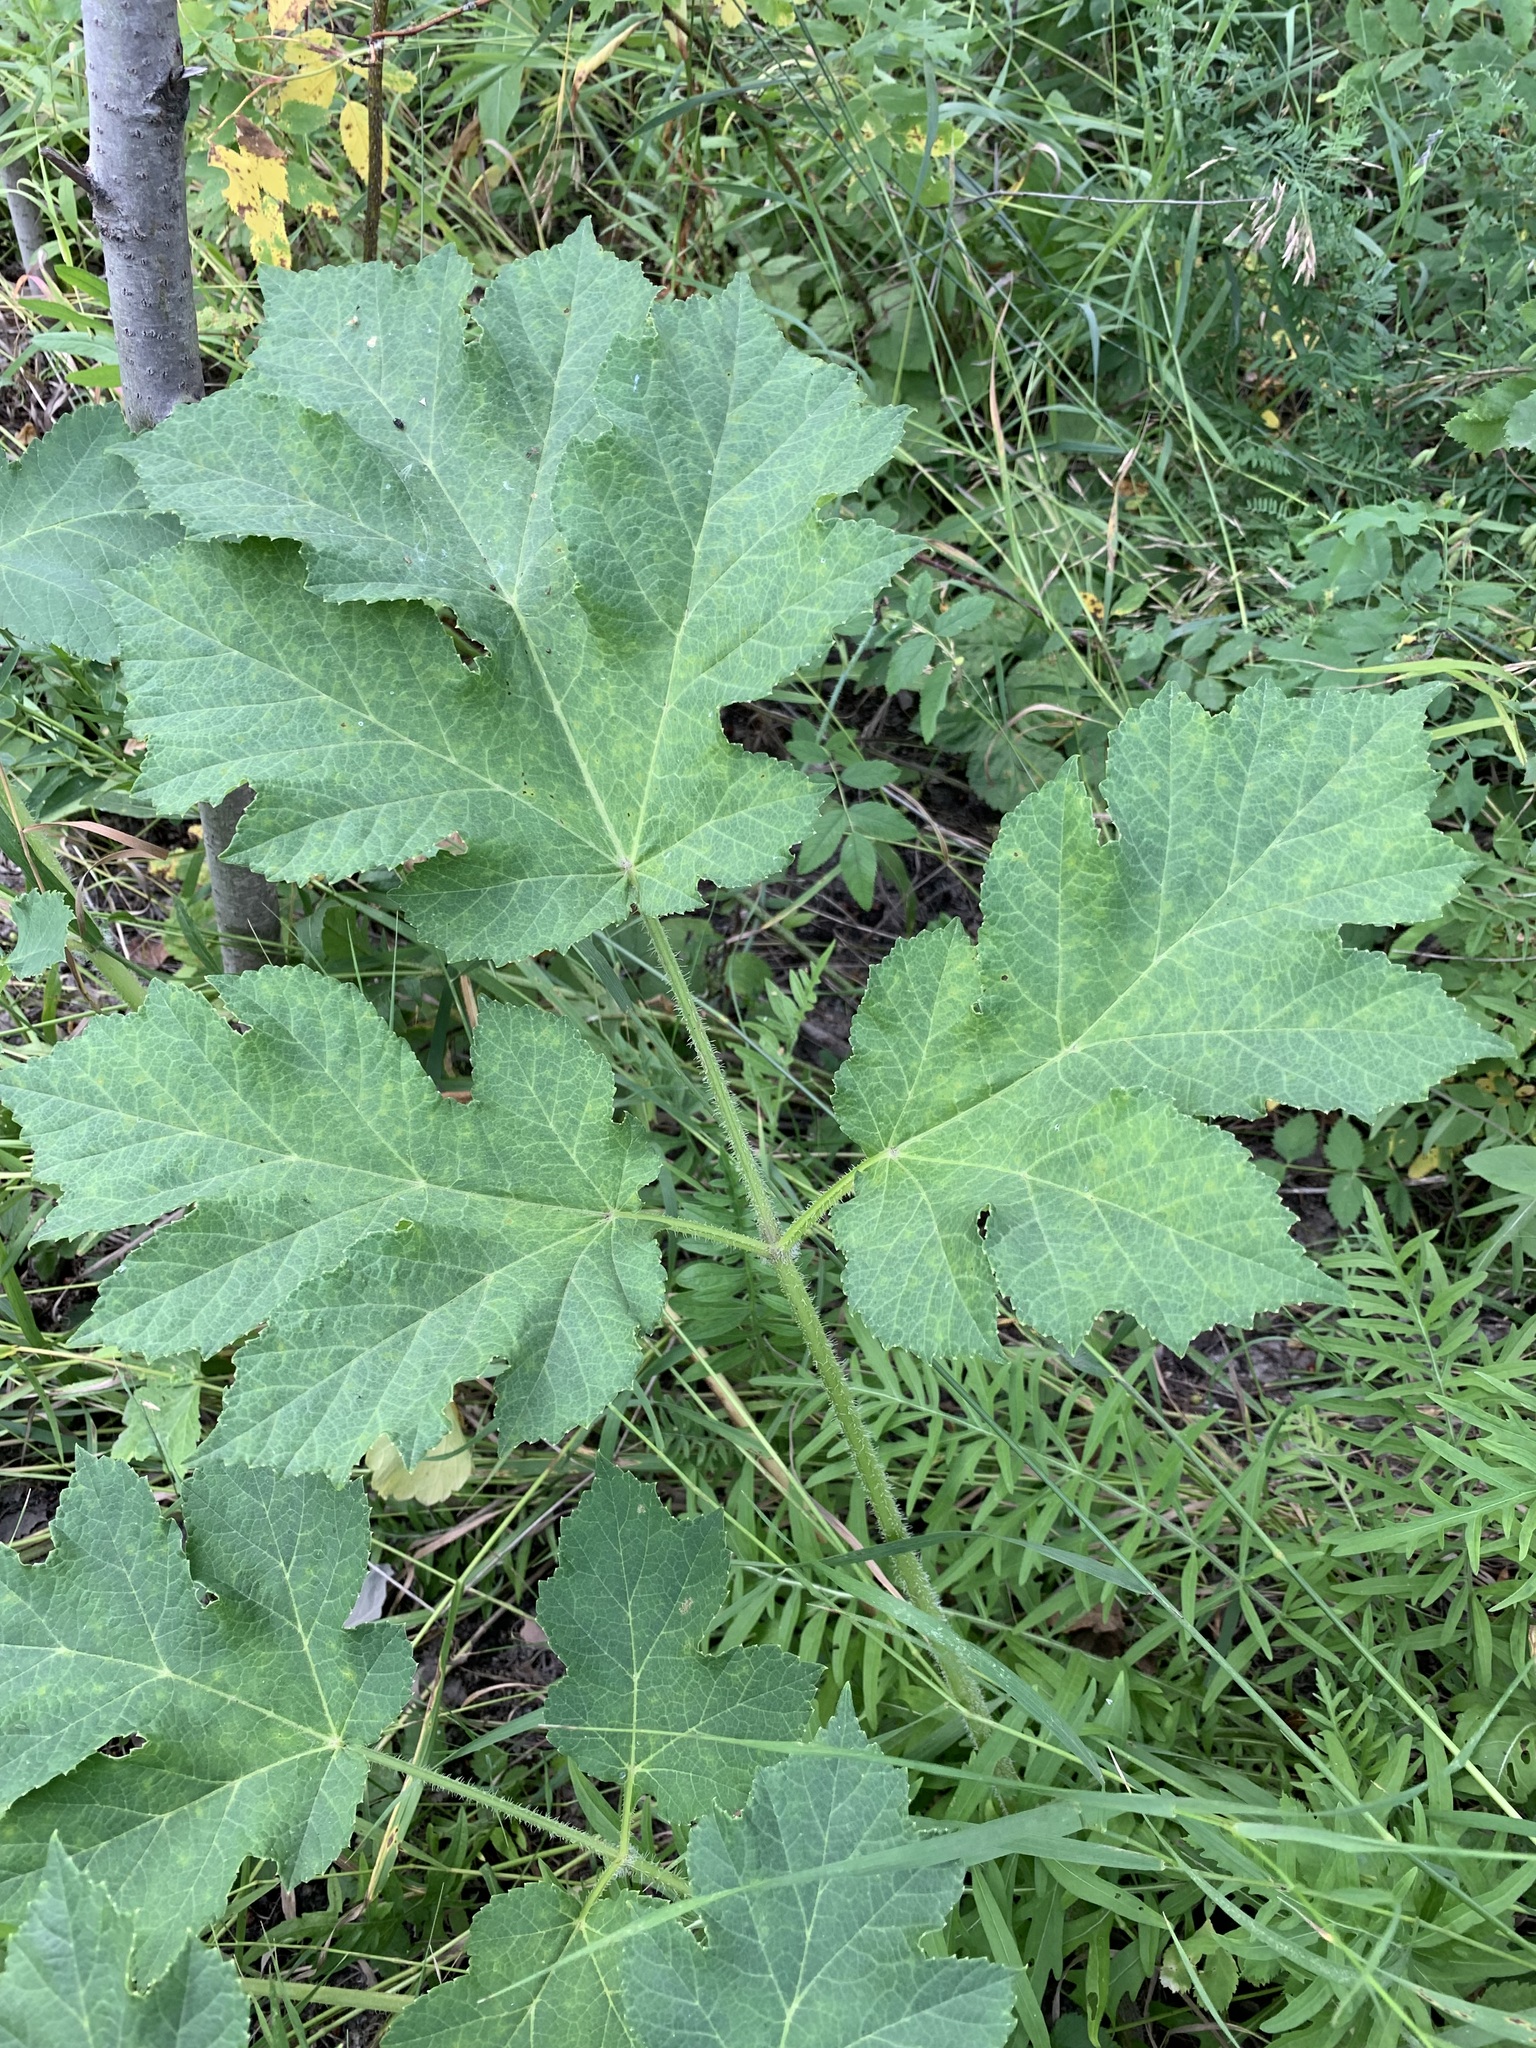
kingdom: Plantae
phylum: Tracheophyta
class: Magnoliopsida
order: Apiales
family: Apiaceae
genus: Heracleum
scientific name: Heracleum sphondylium
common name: Hogweed
